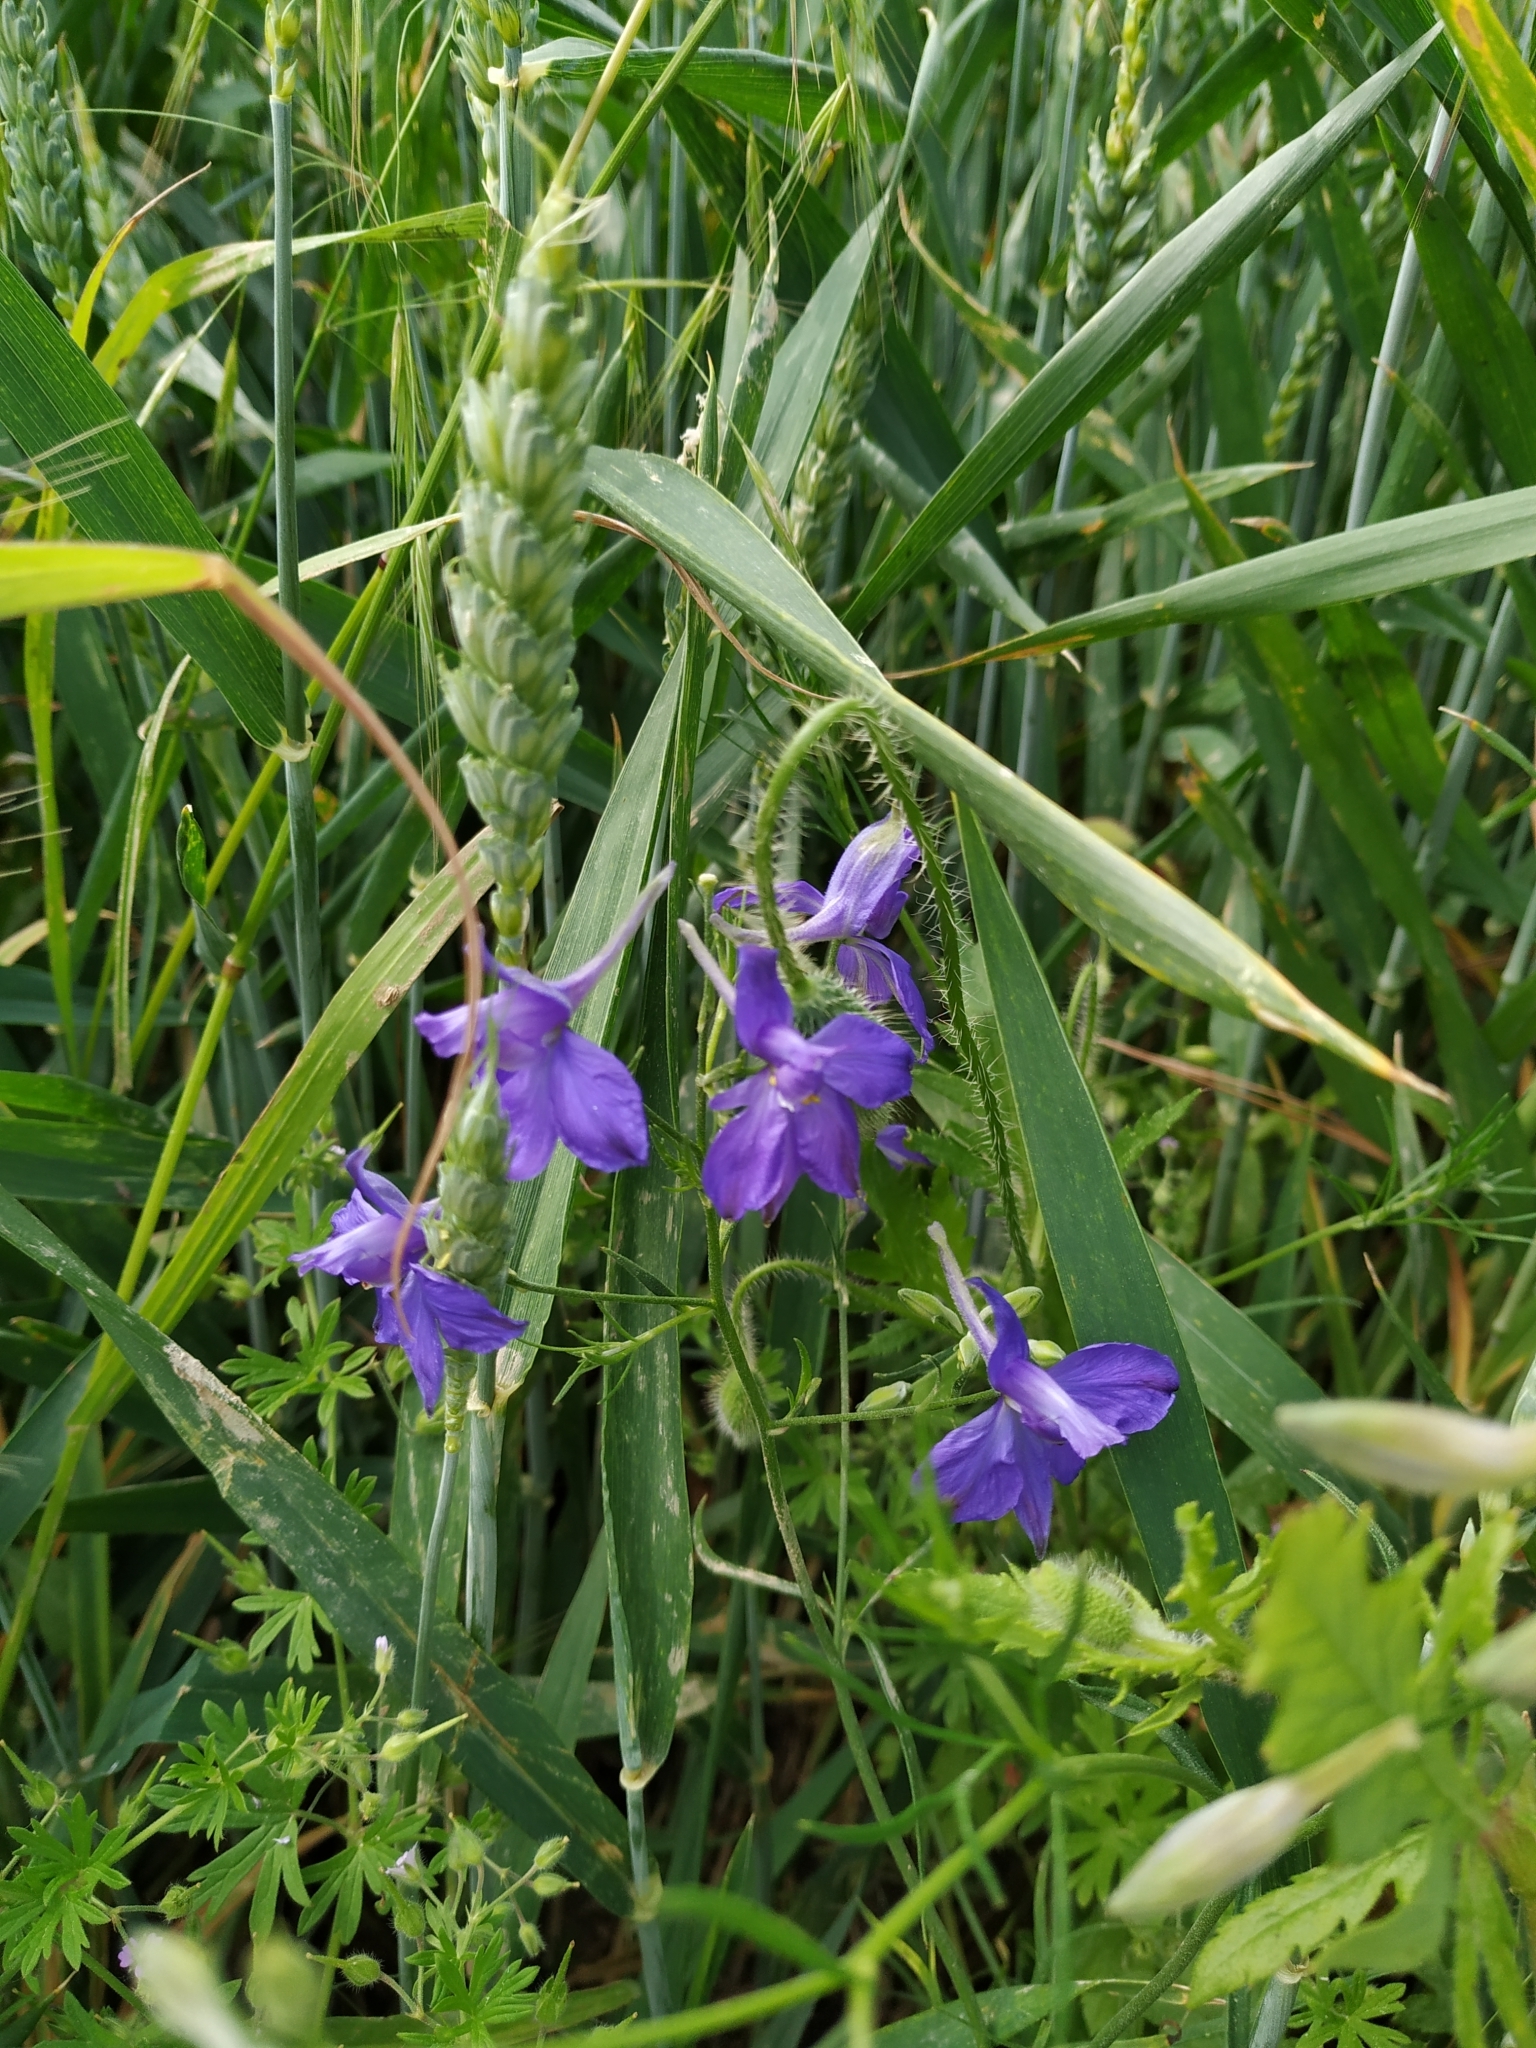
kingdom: Plantae
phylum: Tracheophyta
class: Magnoliopsida
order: Ranunculales
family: Ranunculaceae
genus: Delphinium
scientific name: Delphinium consolida
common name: Branching larkspur
